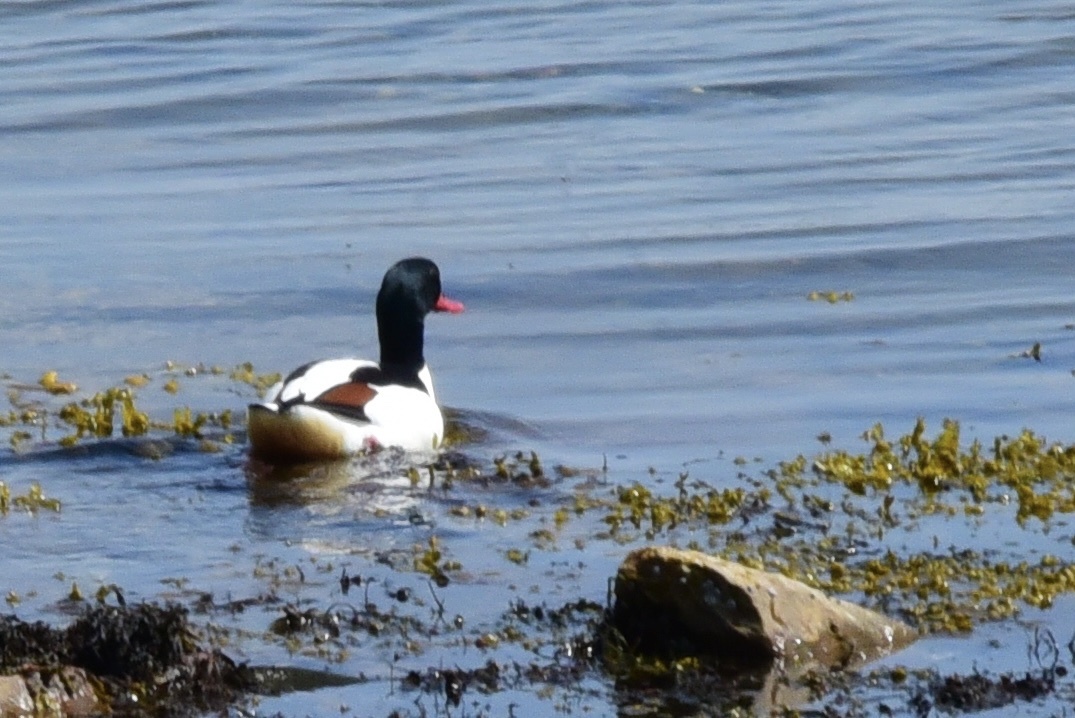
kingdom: Animalia
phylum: Chordata
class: Aves
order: Anseriformes
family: Anatidae
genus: Tadorna
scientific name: Tadorna tadorna
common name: Common shelduck
